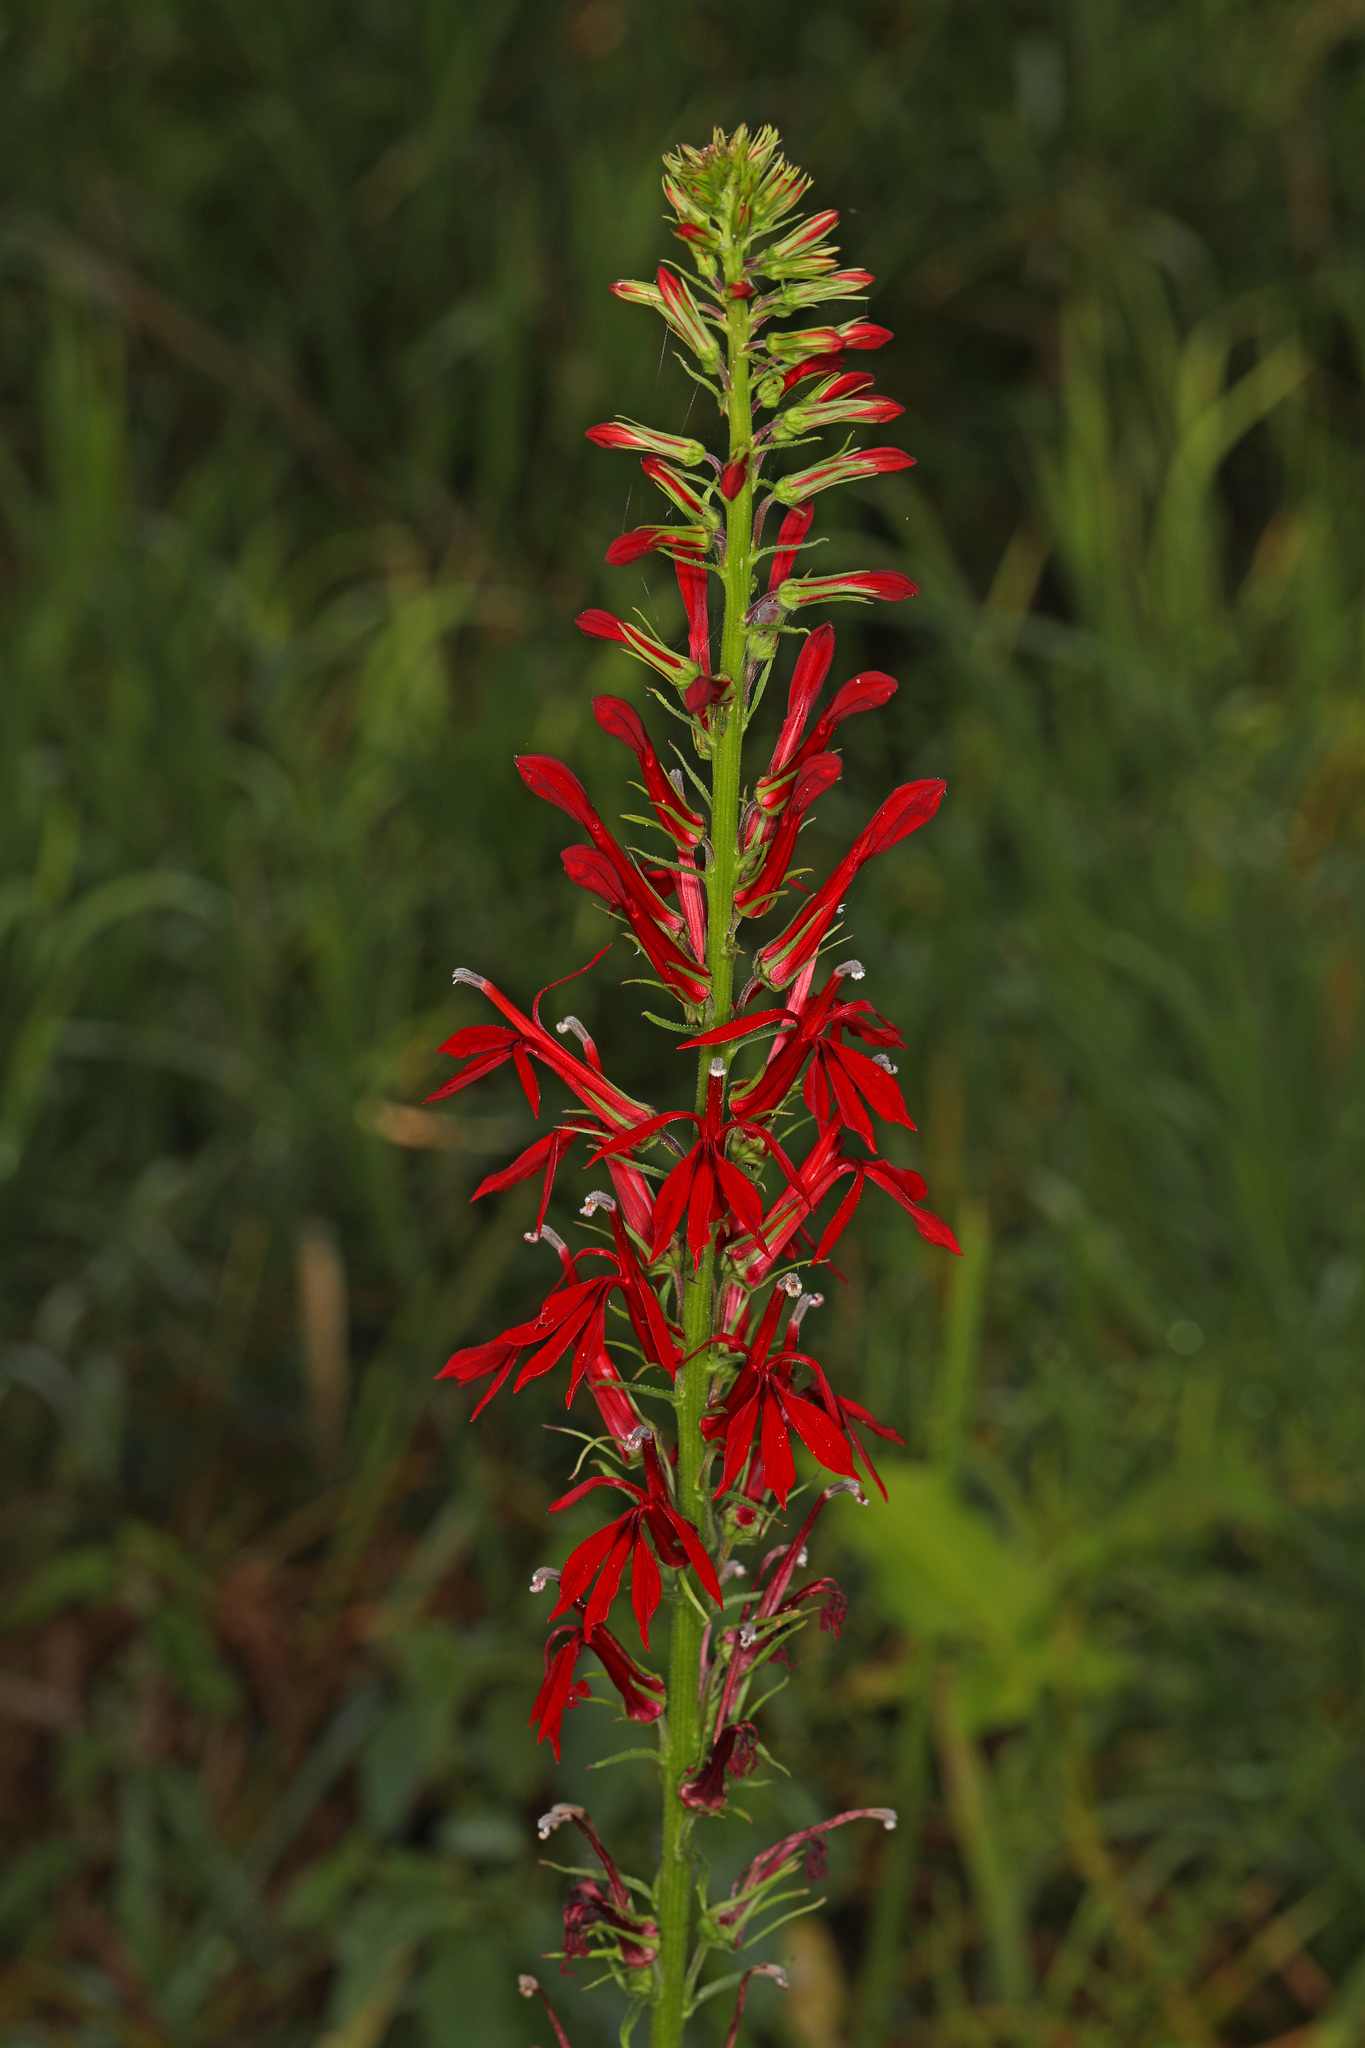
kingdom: Plantae
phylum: Tracheophyta
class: Magnoliopsida
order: Asterales
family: Campanulaceae
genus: Lobelia
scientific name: Lobelia cardinalis
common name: Cardinal flower
